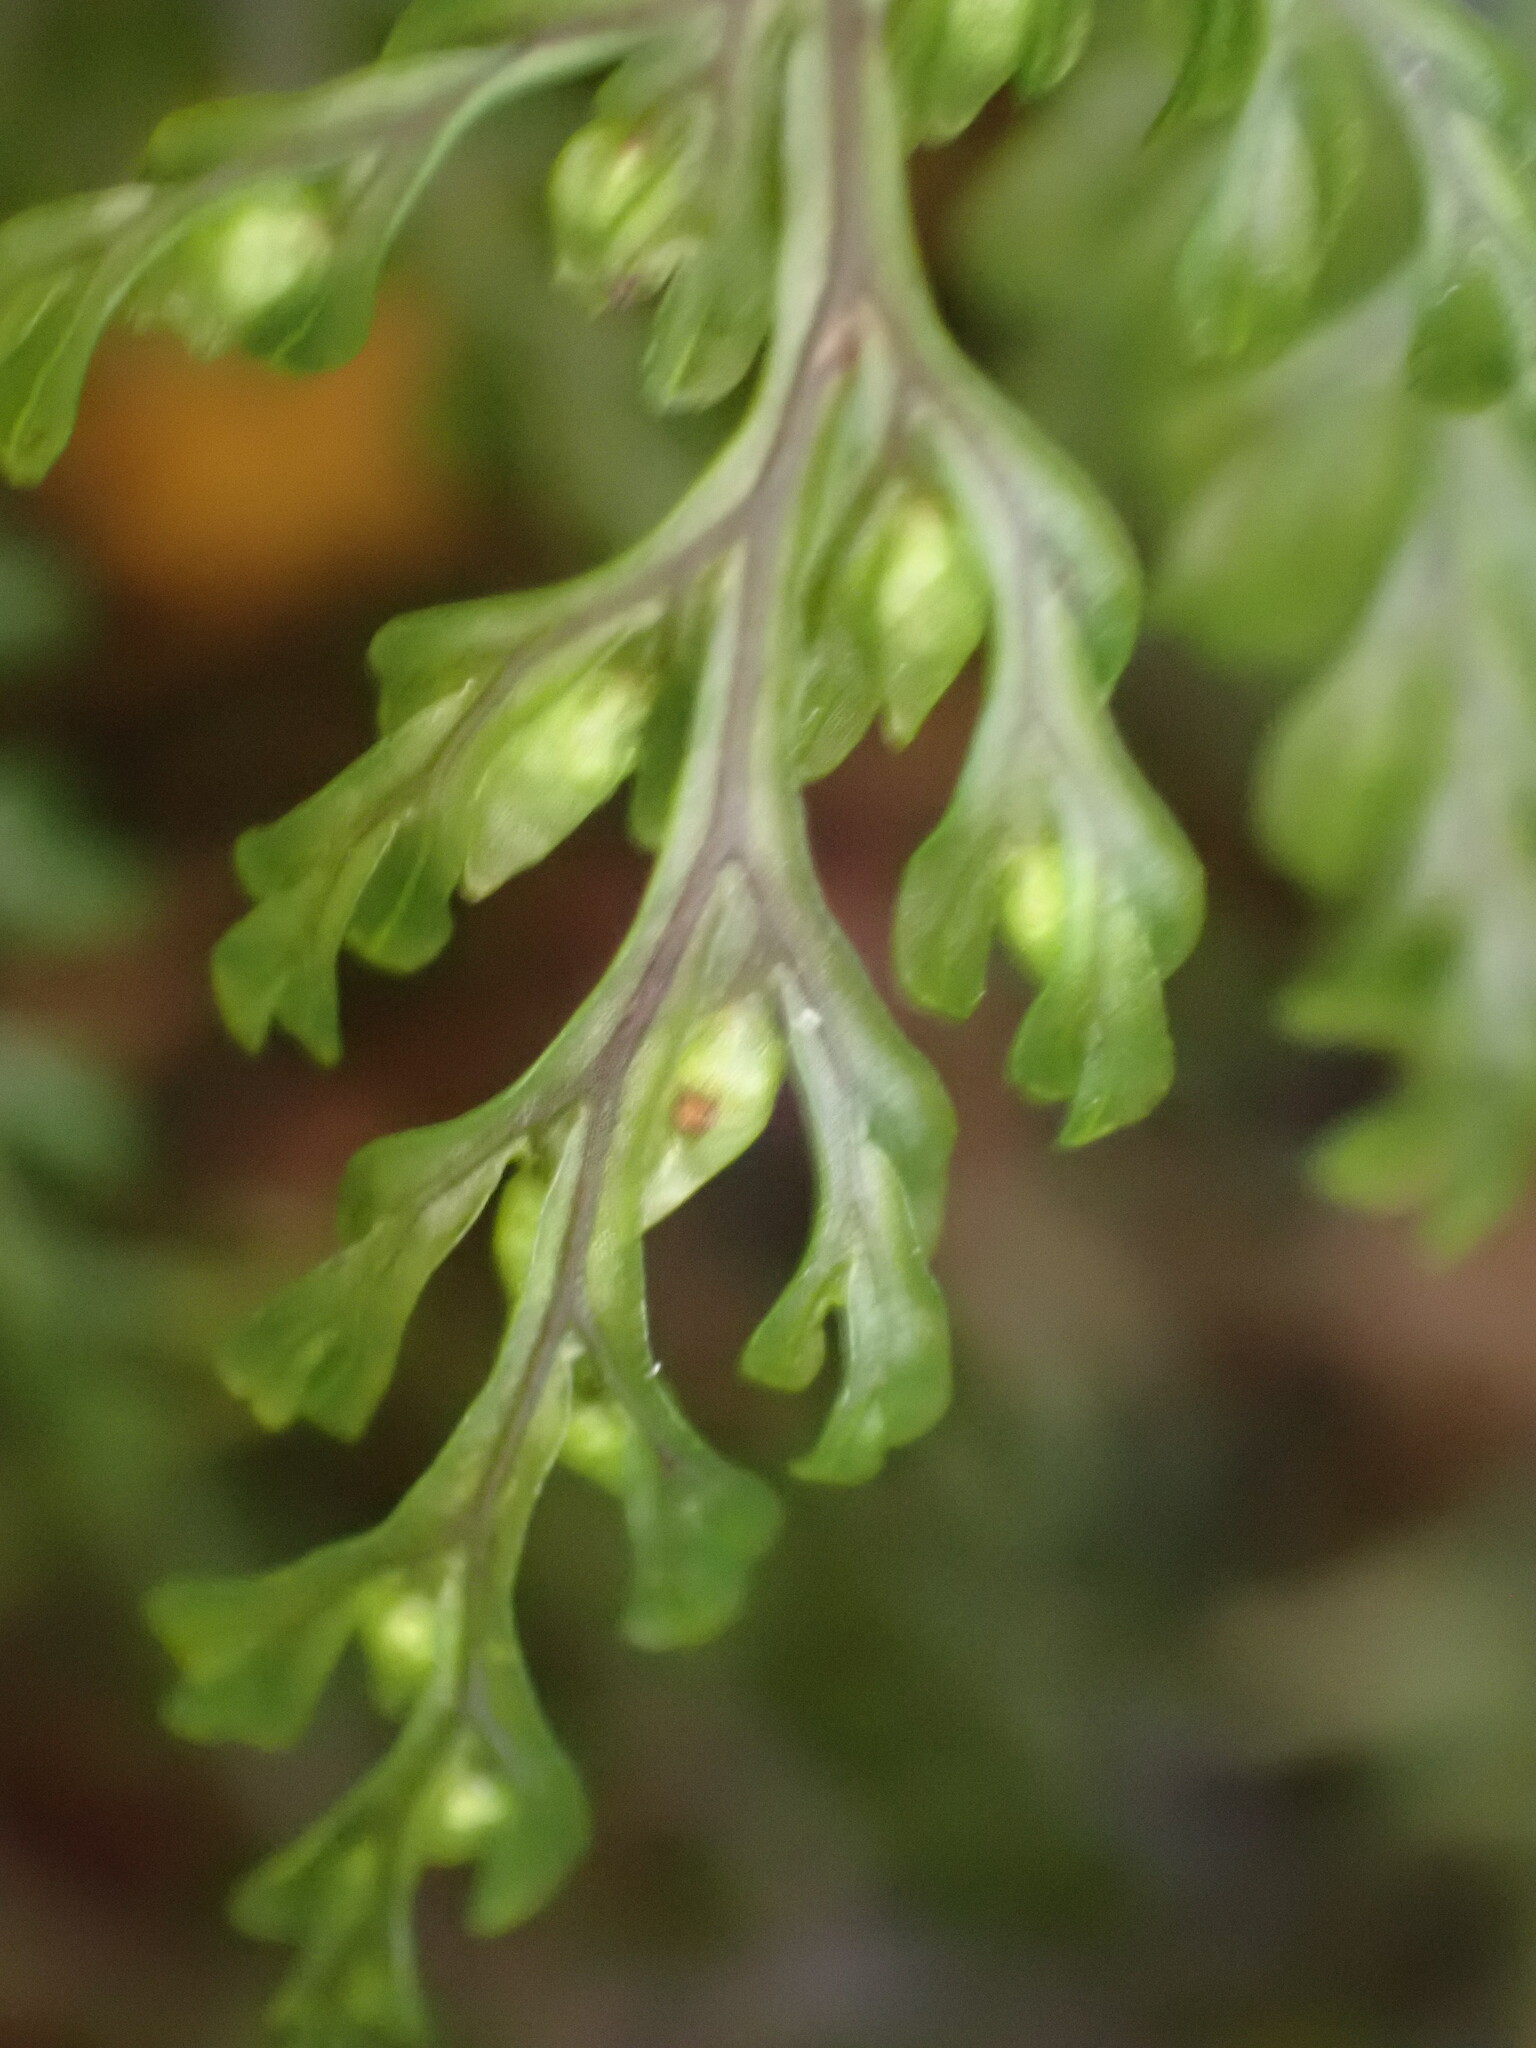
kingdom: Plantae
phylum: Tracheophyta
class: Polypodiopsida
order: Hymenophyllales
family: Hymenophyllaceae
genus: Hymenophyllum
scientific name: Hymenophyllum villosum
